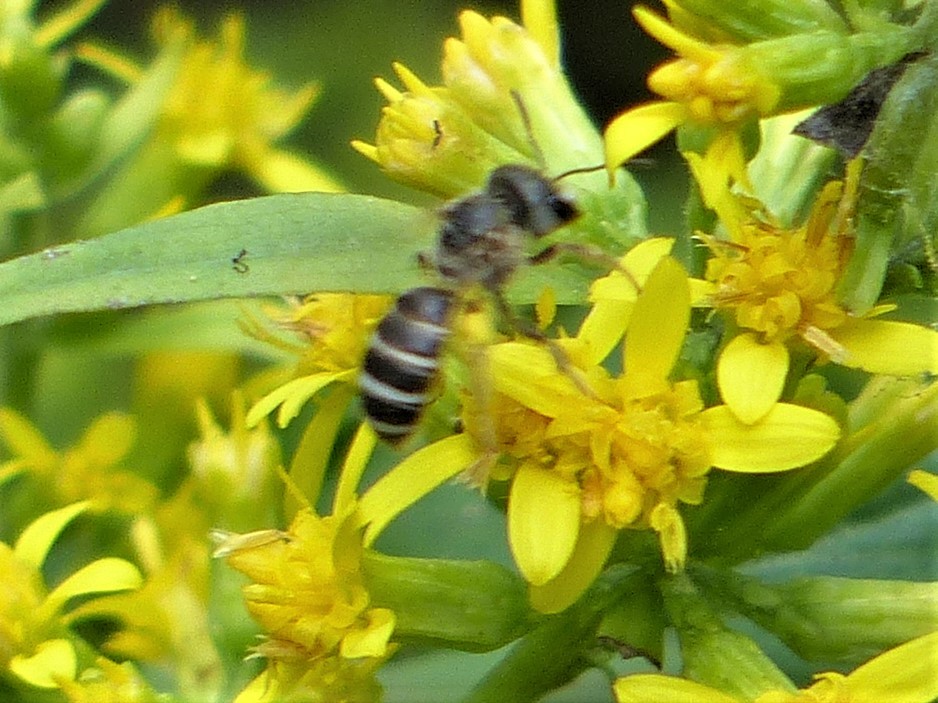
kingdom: Animalia
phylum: Arthropoda
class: Insecta
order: Hymenoptera
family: Halictidae
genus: Halictus
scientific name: Halictus ligatus
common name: Ligated furrow bee
